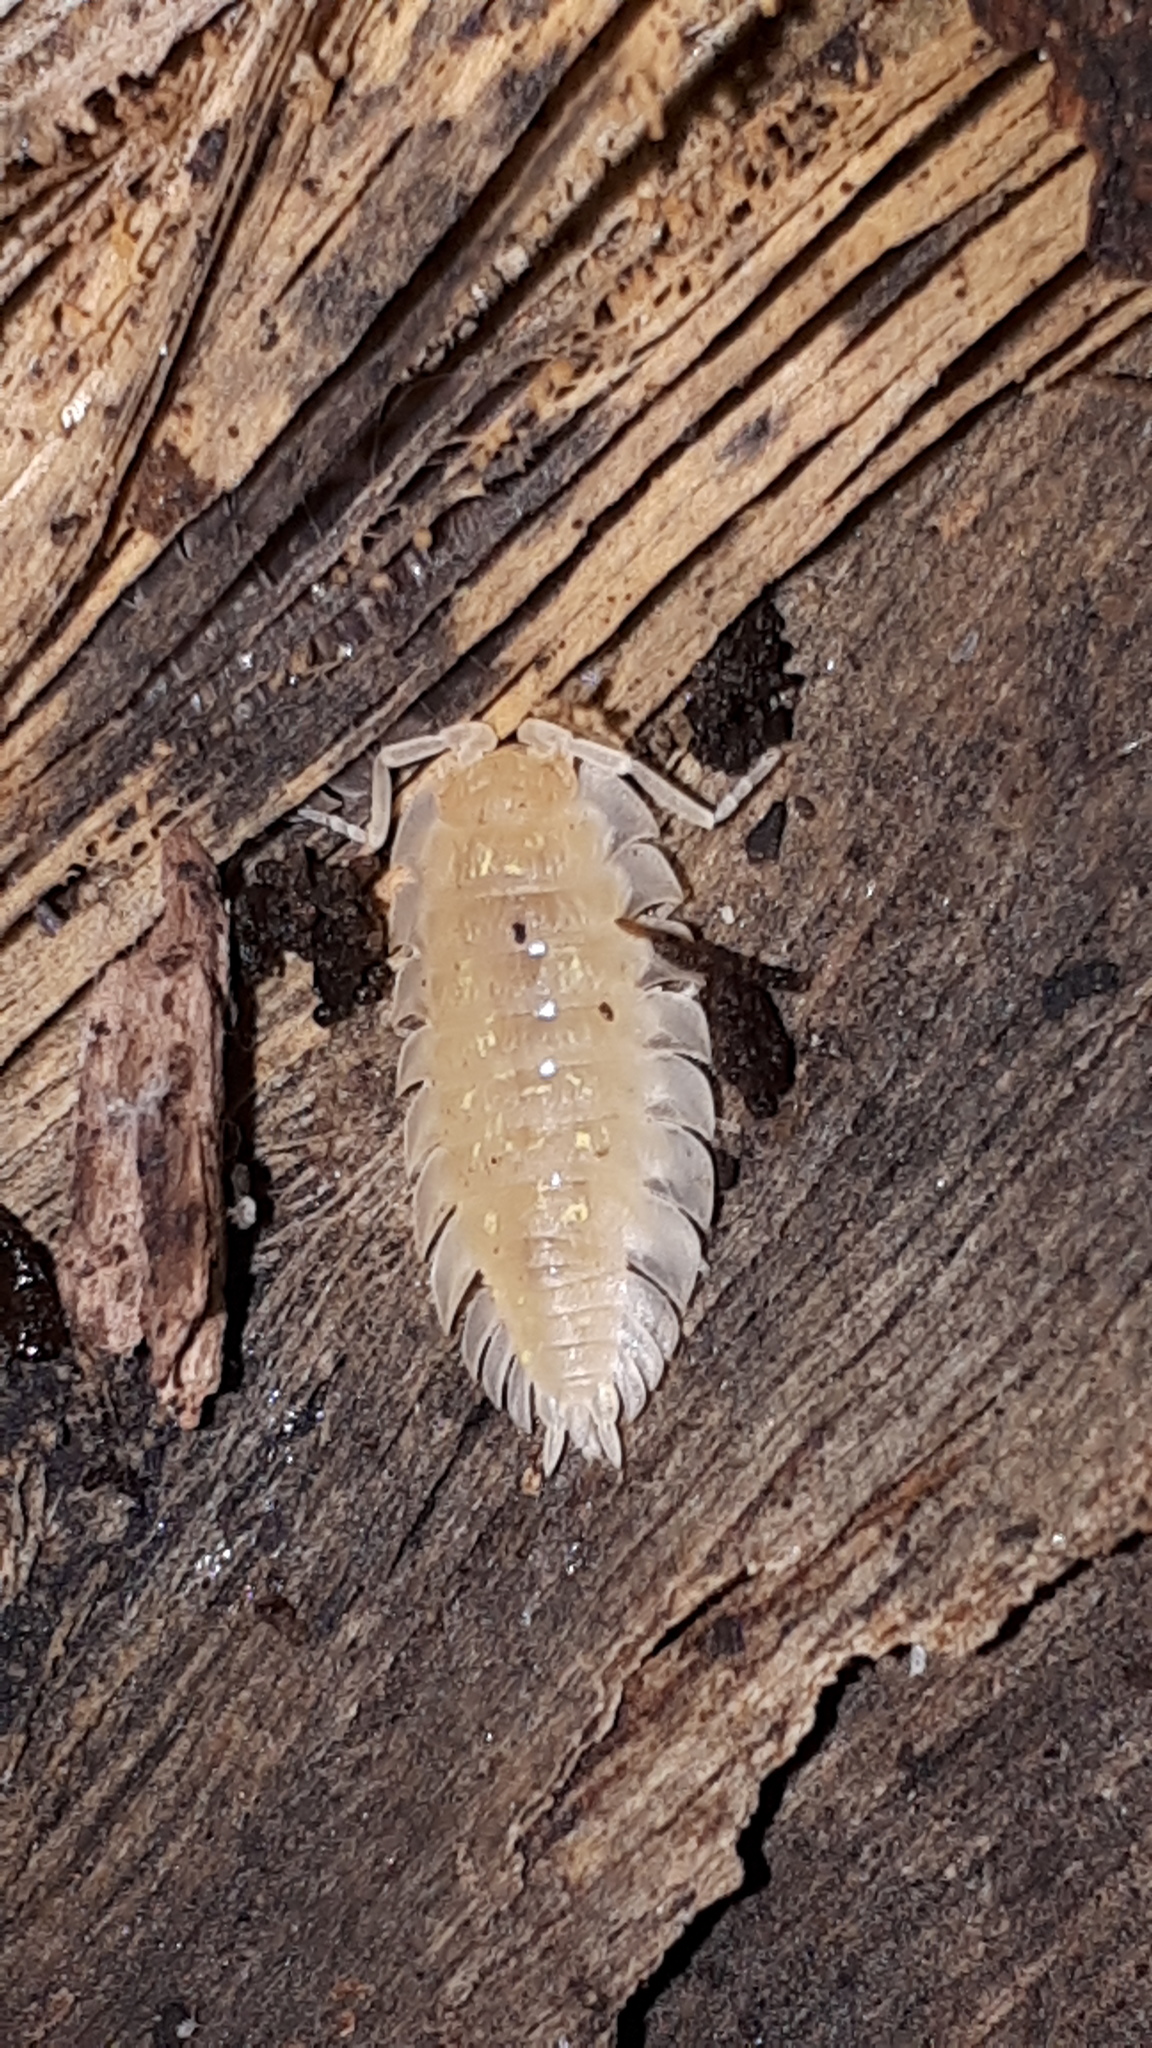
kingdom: Animalia
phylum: Arthropoda
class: Malacostraca
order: Isopoda
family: Oniscidae
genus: Oniscus
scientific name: Oniscus asellus
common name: Common shiny woodlouse
